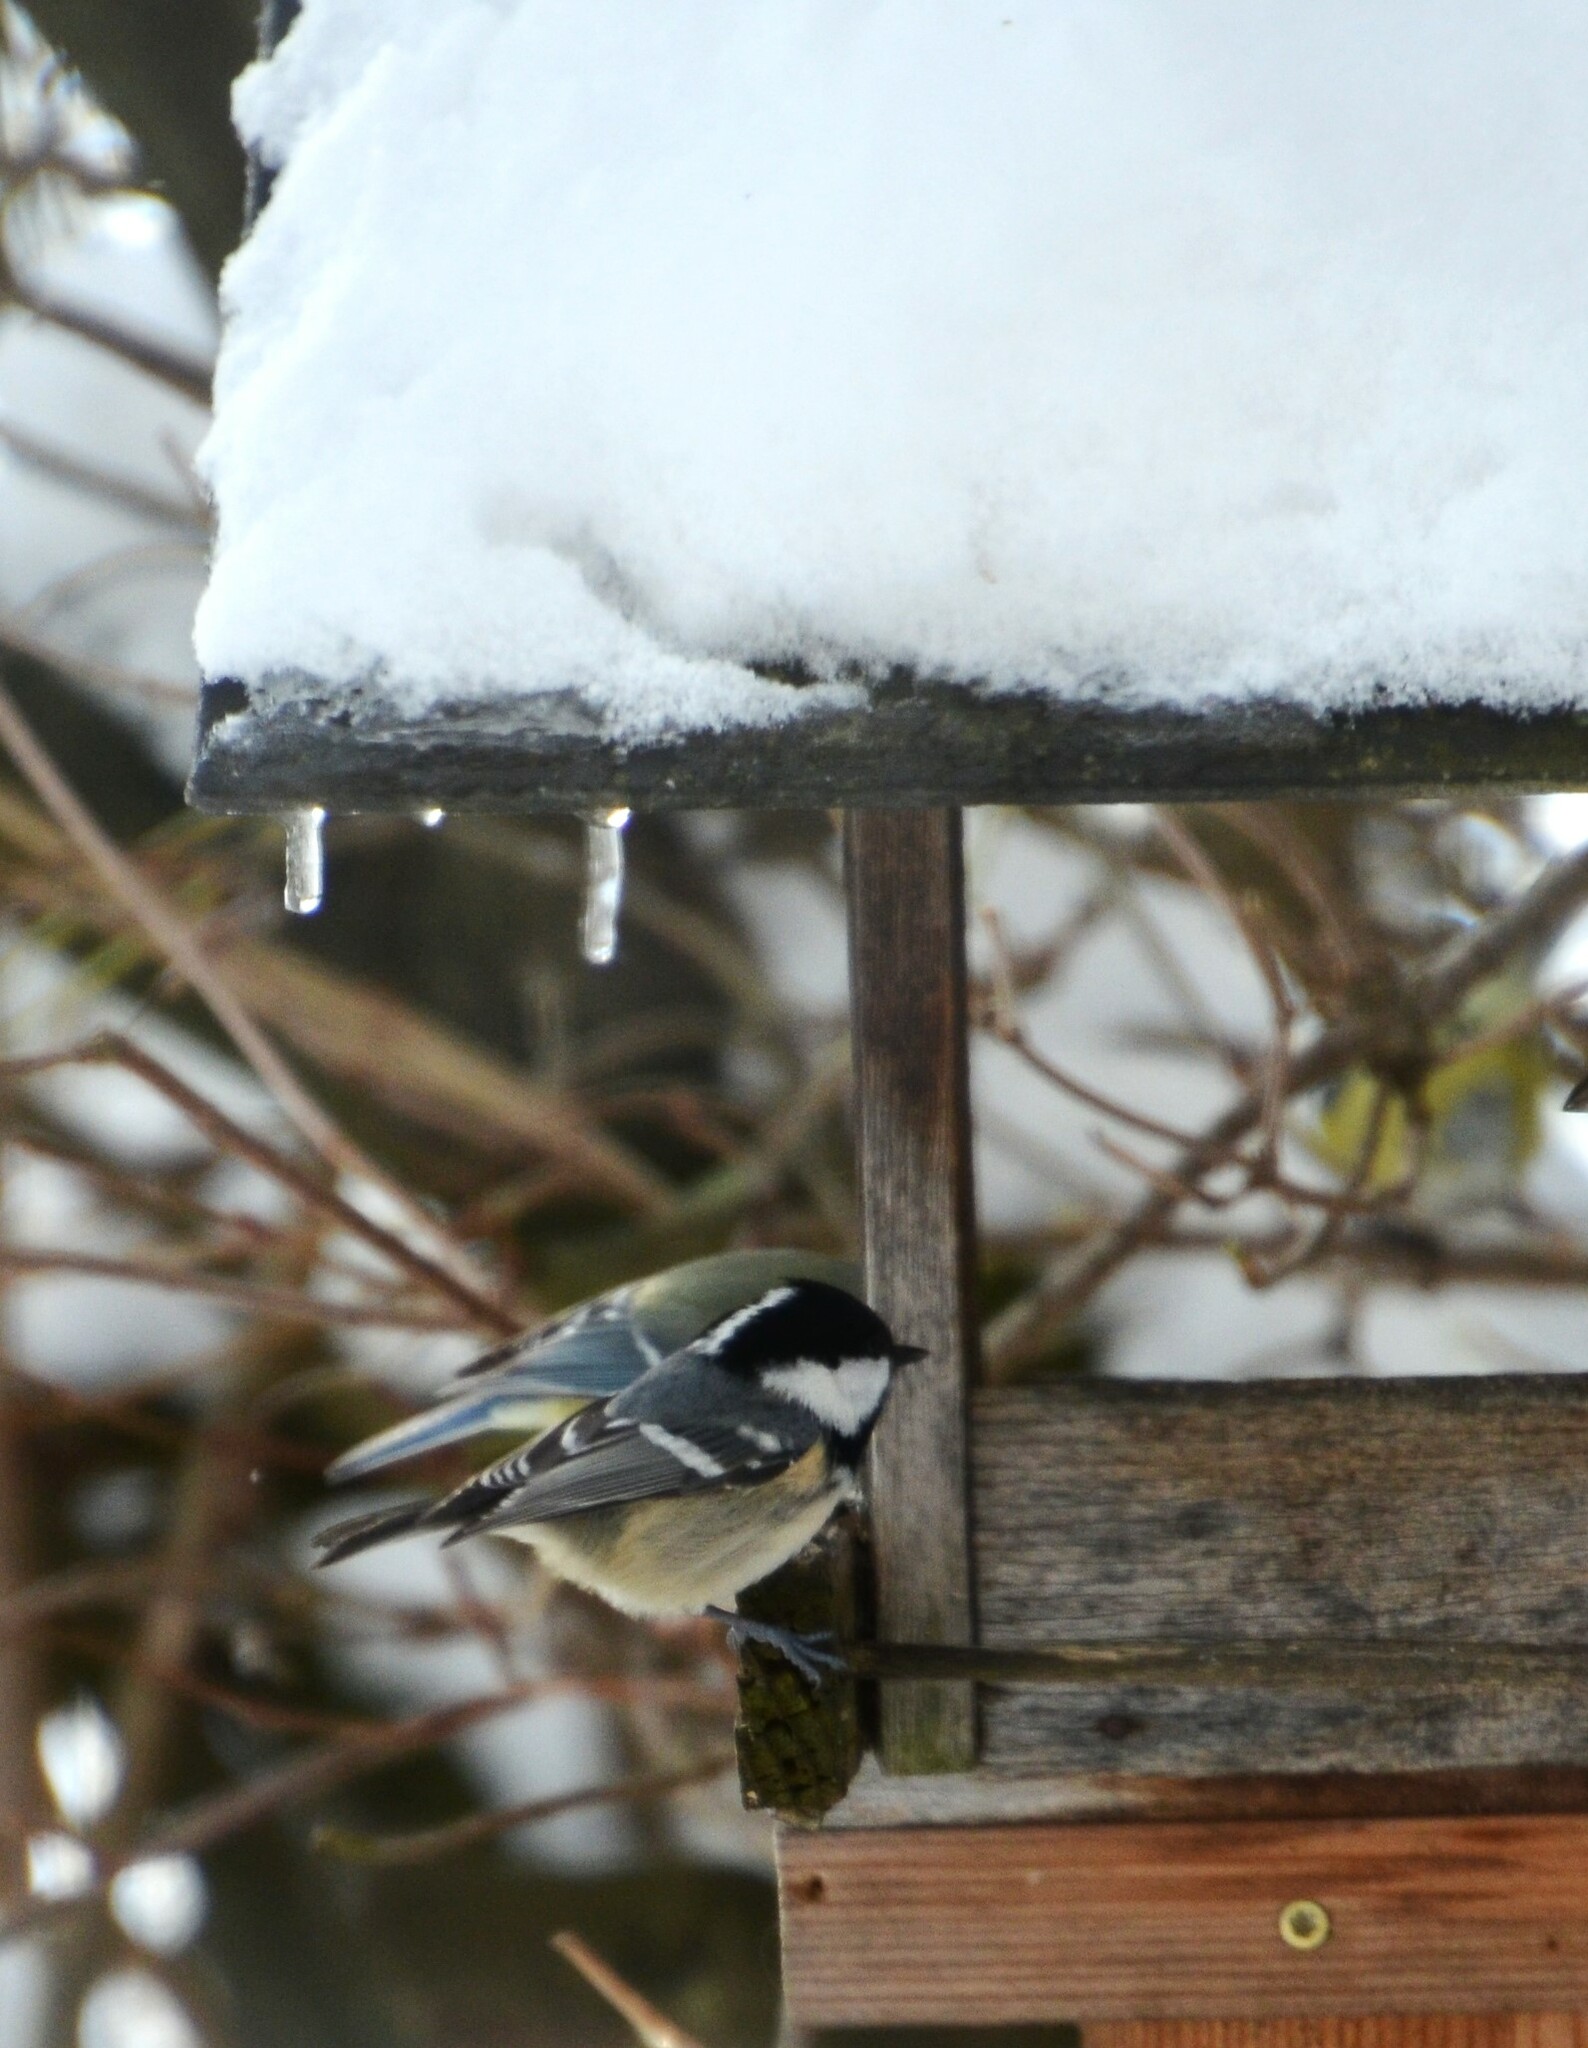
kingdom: Animalia
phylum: Chordata
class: Aves
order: Passeriformes
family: Paridae
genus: Periparus
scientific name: Periparus ater
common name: Coal tit
